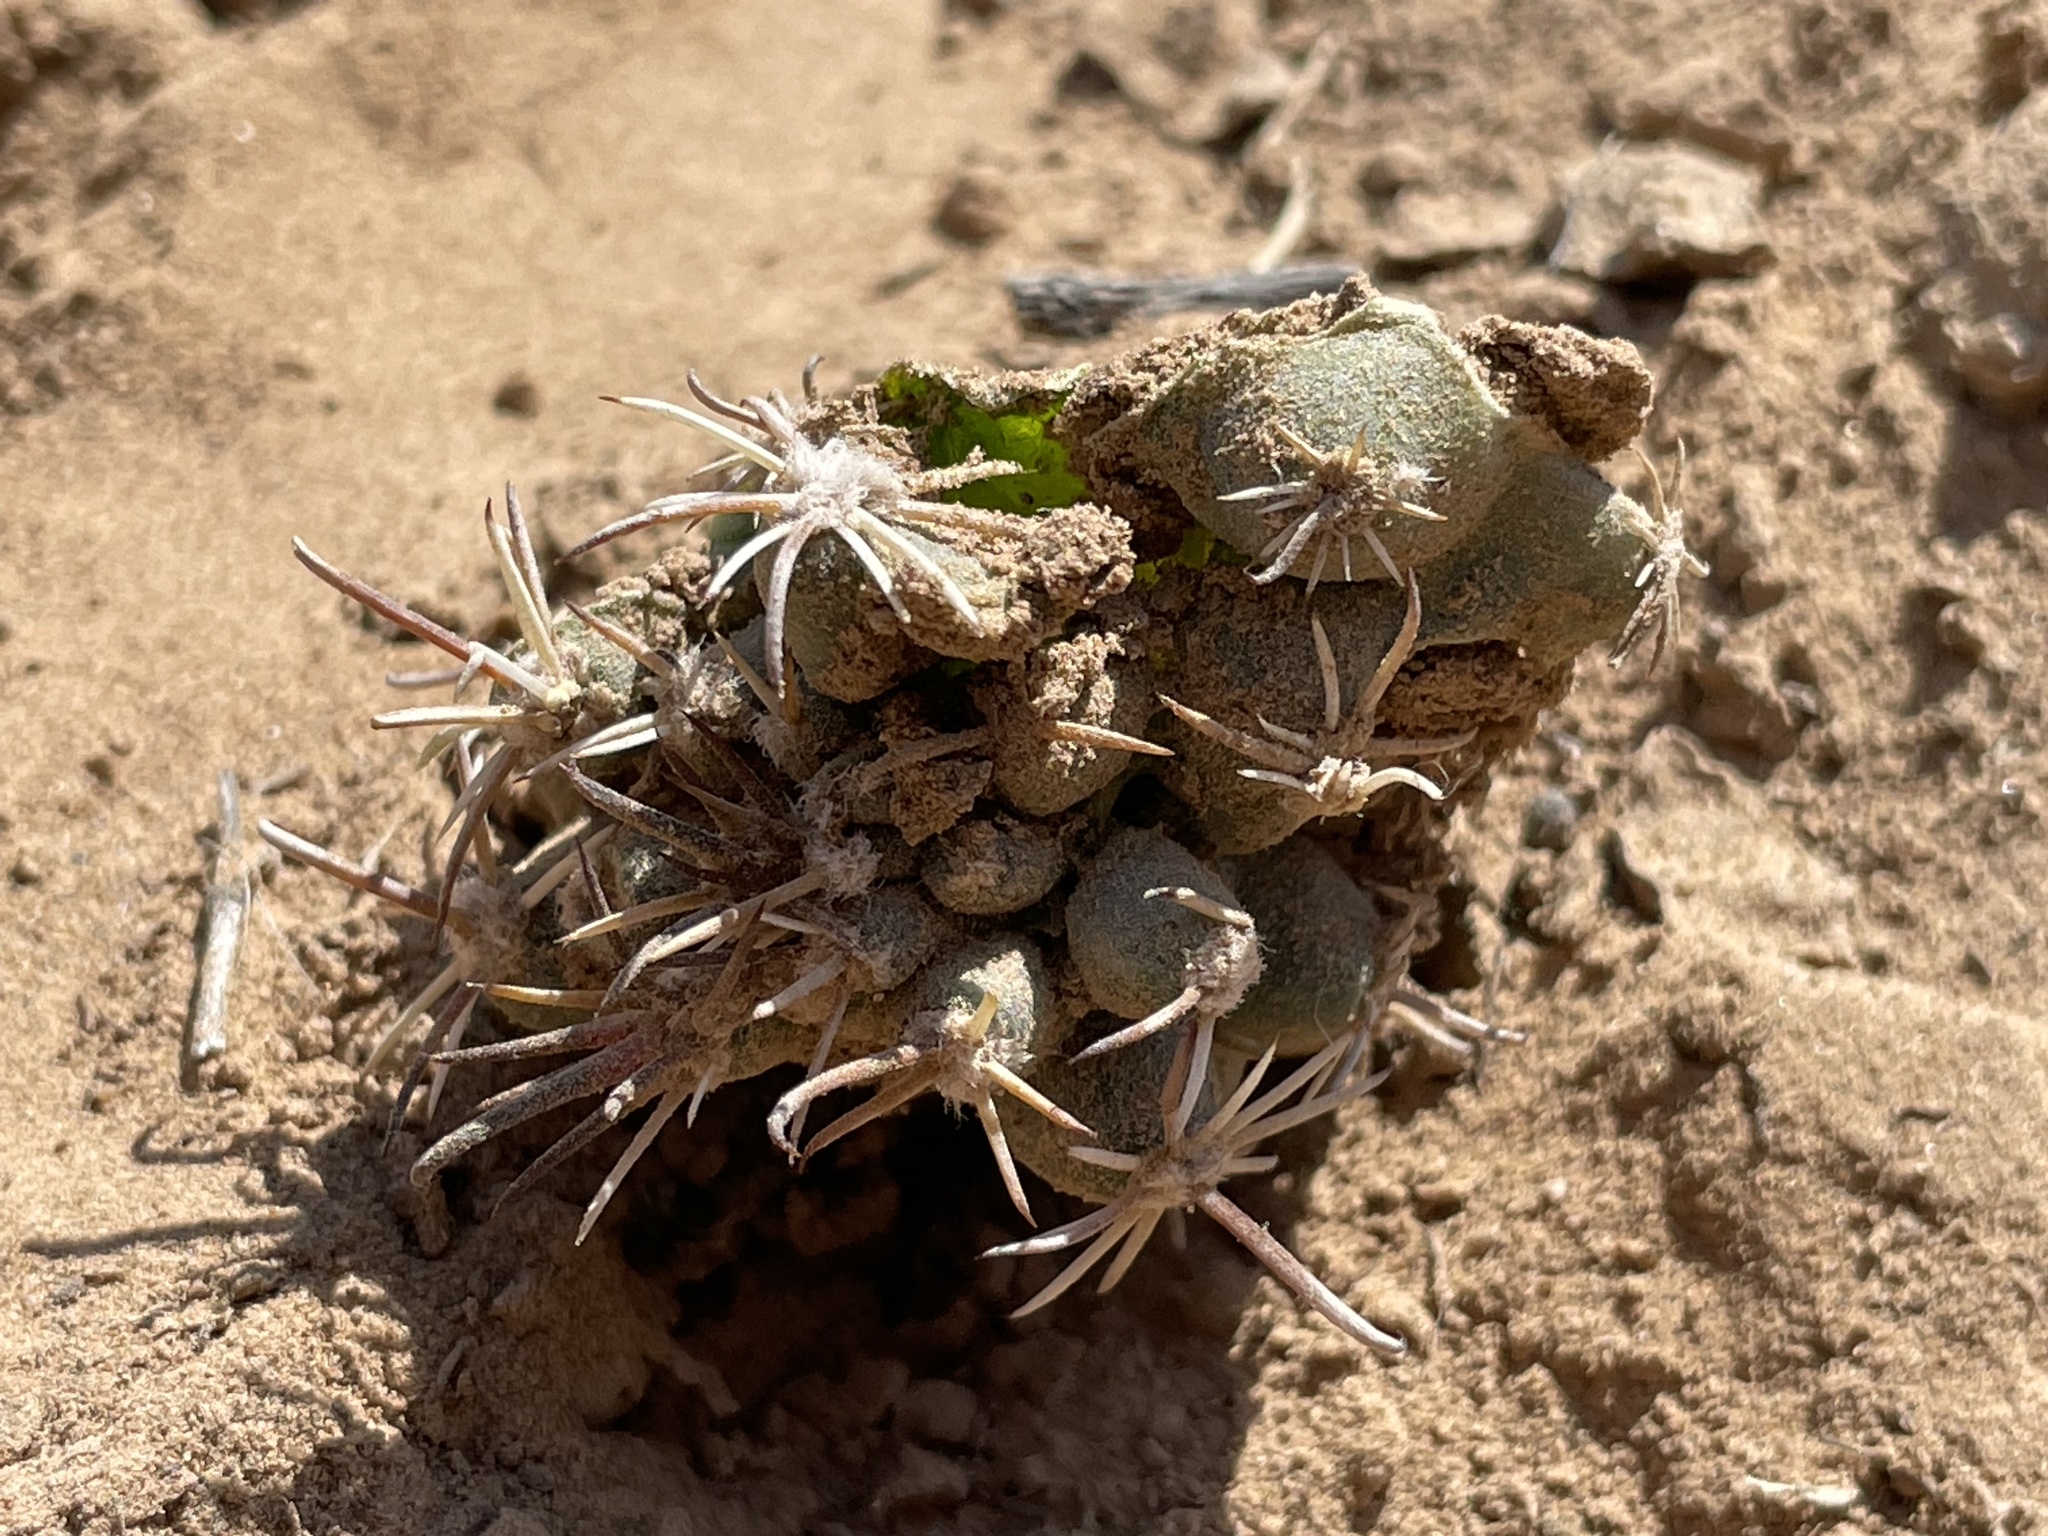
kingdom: Plantae
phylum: Tracheophyta
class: Magnoliopsida
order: Caryophyllales
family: Cactaceae
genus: Sclerocactus
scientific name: Sclerocactus cloverae
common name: Clover's eagle-claw cactus
